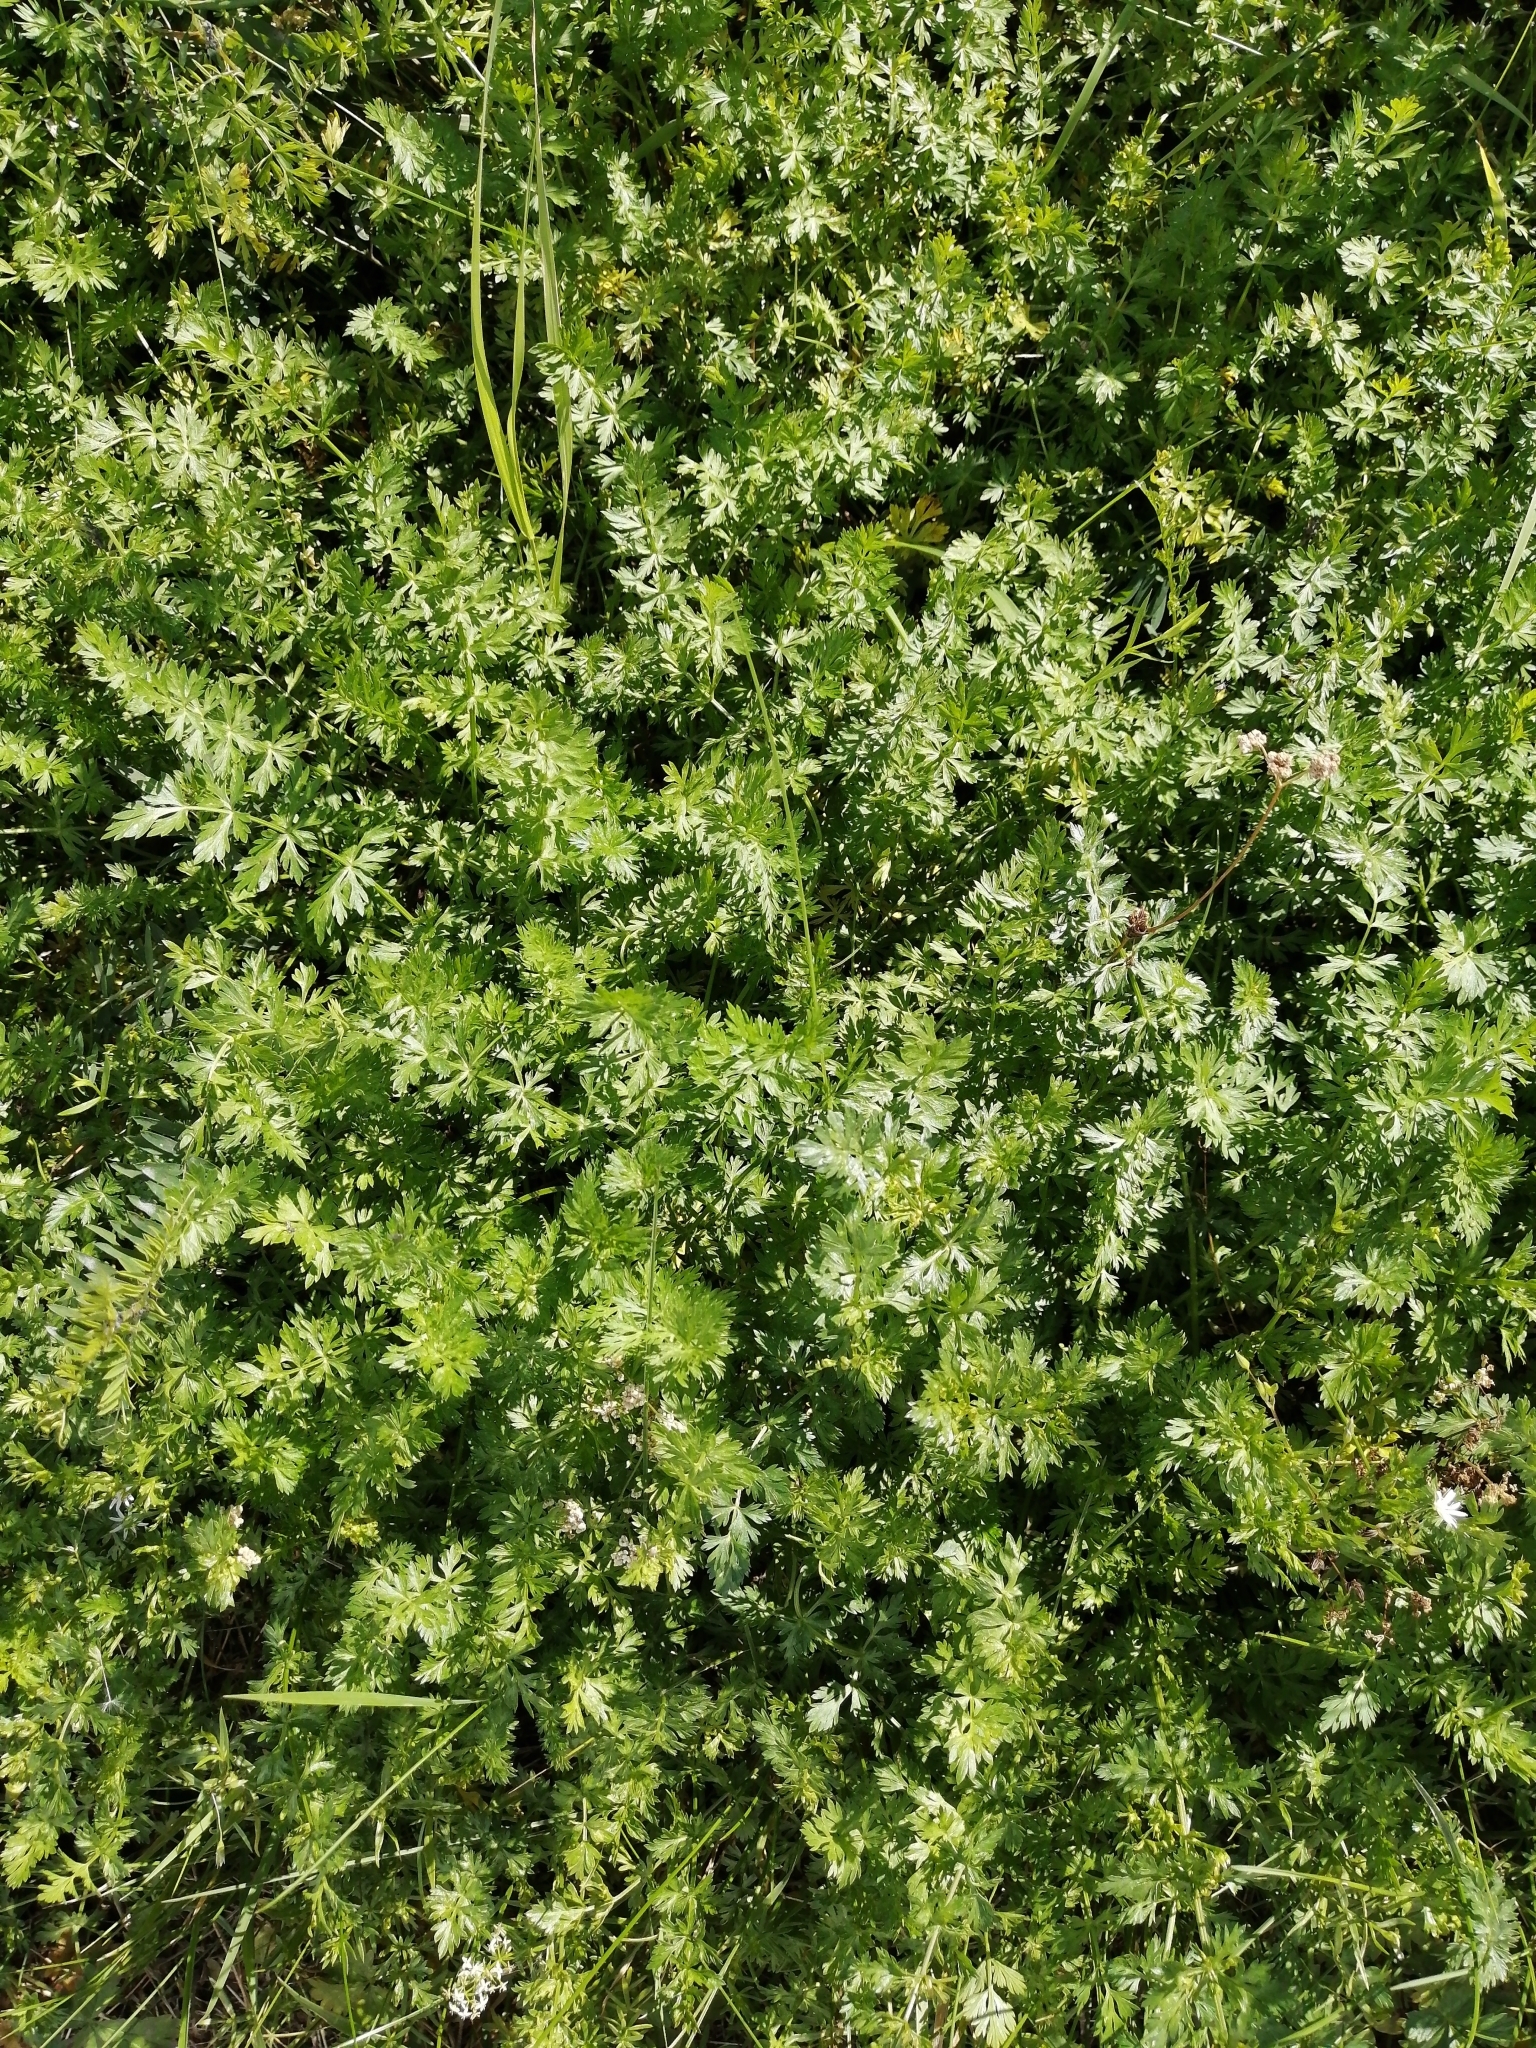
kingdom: Plantae
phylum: Tracheophyta
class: Magnoliopsida
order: Apiales
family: Apiaceae
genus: Carum
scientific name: Carum carvi
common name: Caraway
